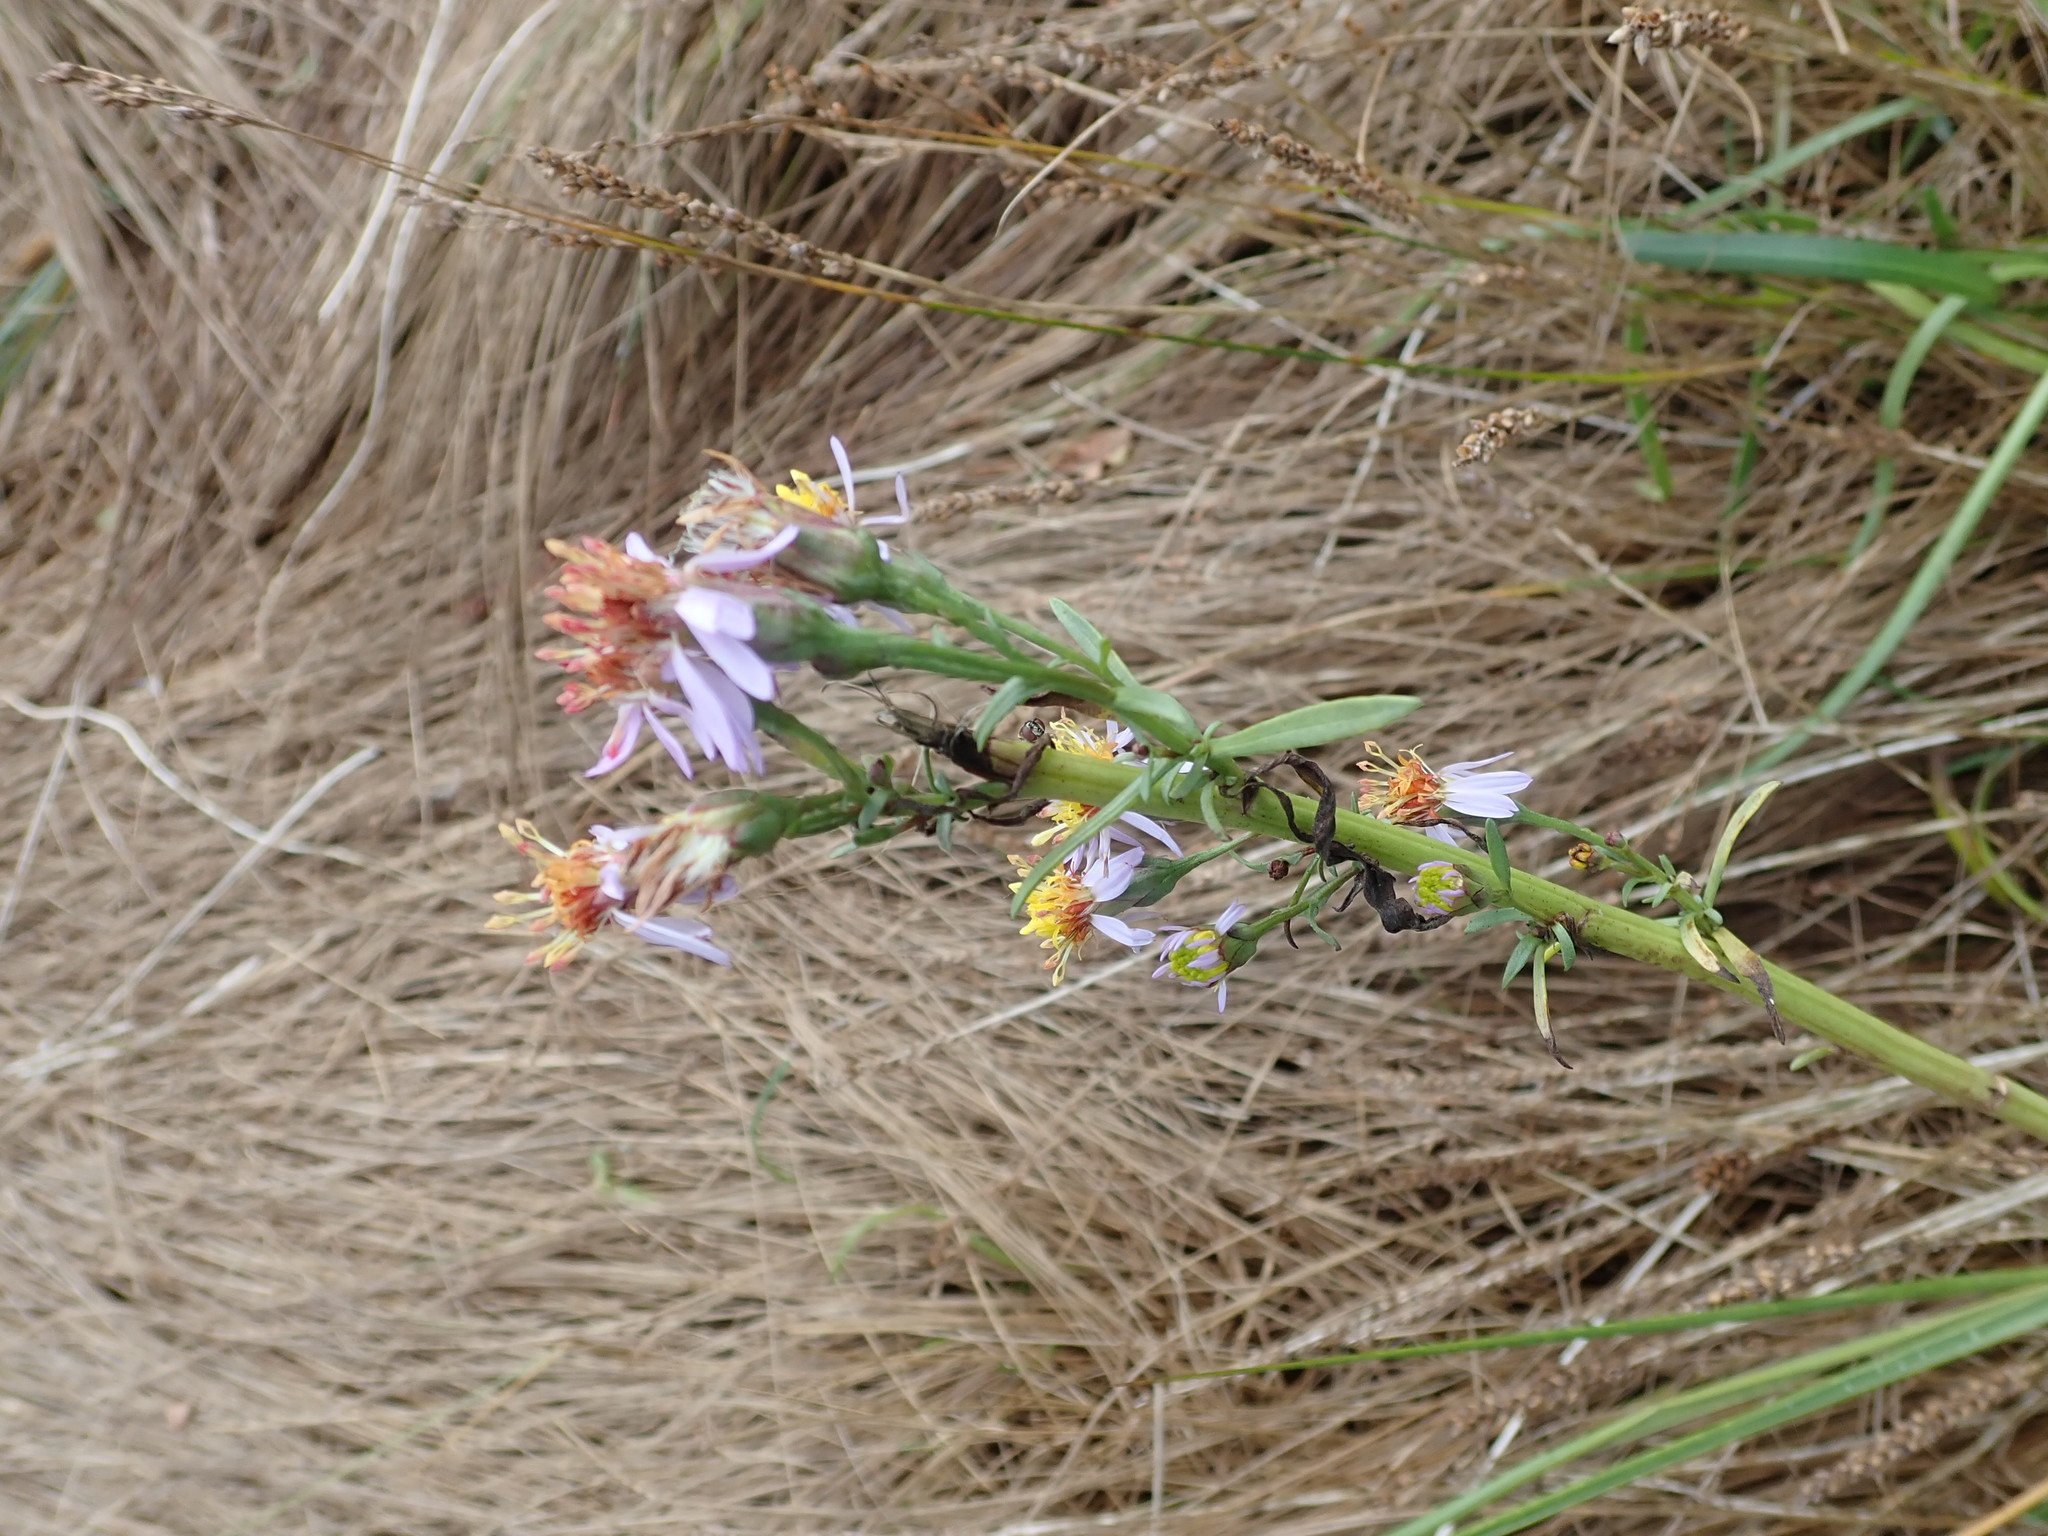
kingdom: Plantae
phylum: Tracheophyta
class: Magnoliopsida
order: Asterales
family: Asteraceae
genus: Tripolium
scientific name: Tripolium pannonicum
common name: Sea aster
